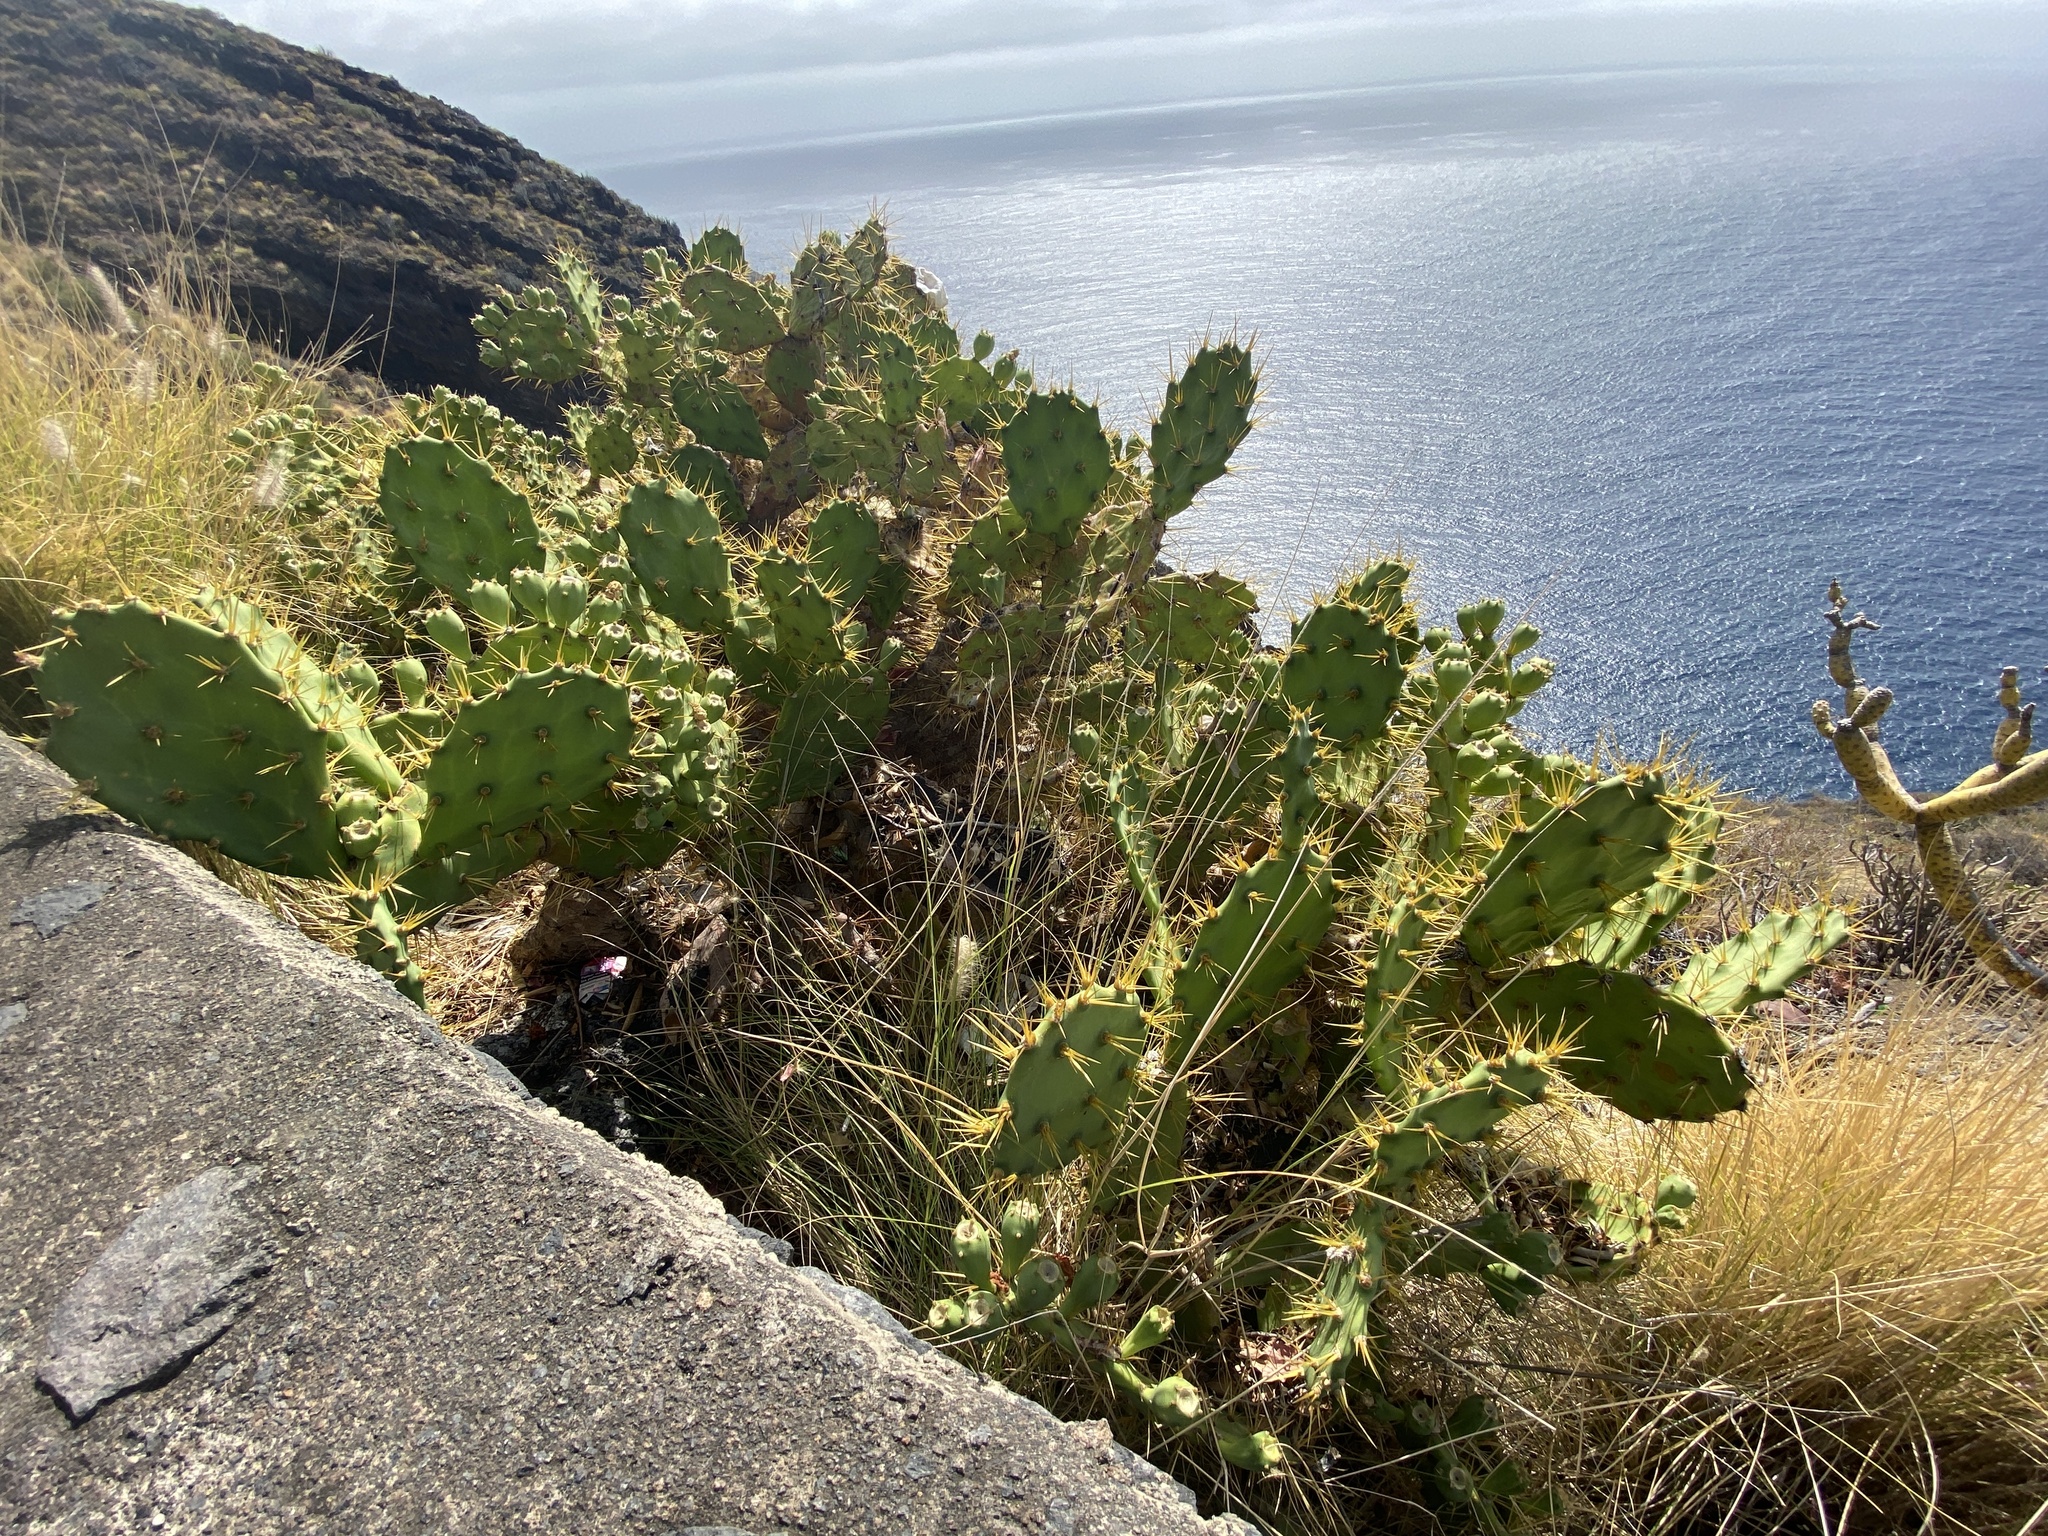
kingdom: Plantae
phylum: Tracheophyta
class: Magnoliopsida
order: Caryophyllales
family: Cactaceae
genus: Opuntia
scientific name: Opuntia stricta
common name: Erect pricklypear
